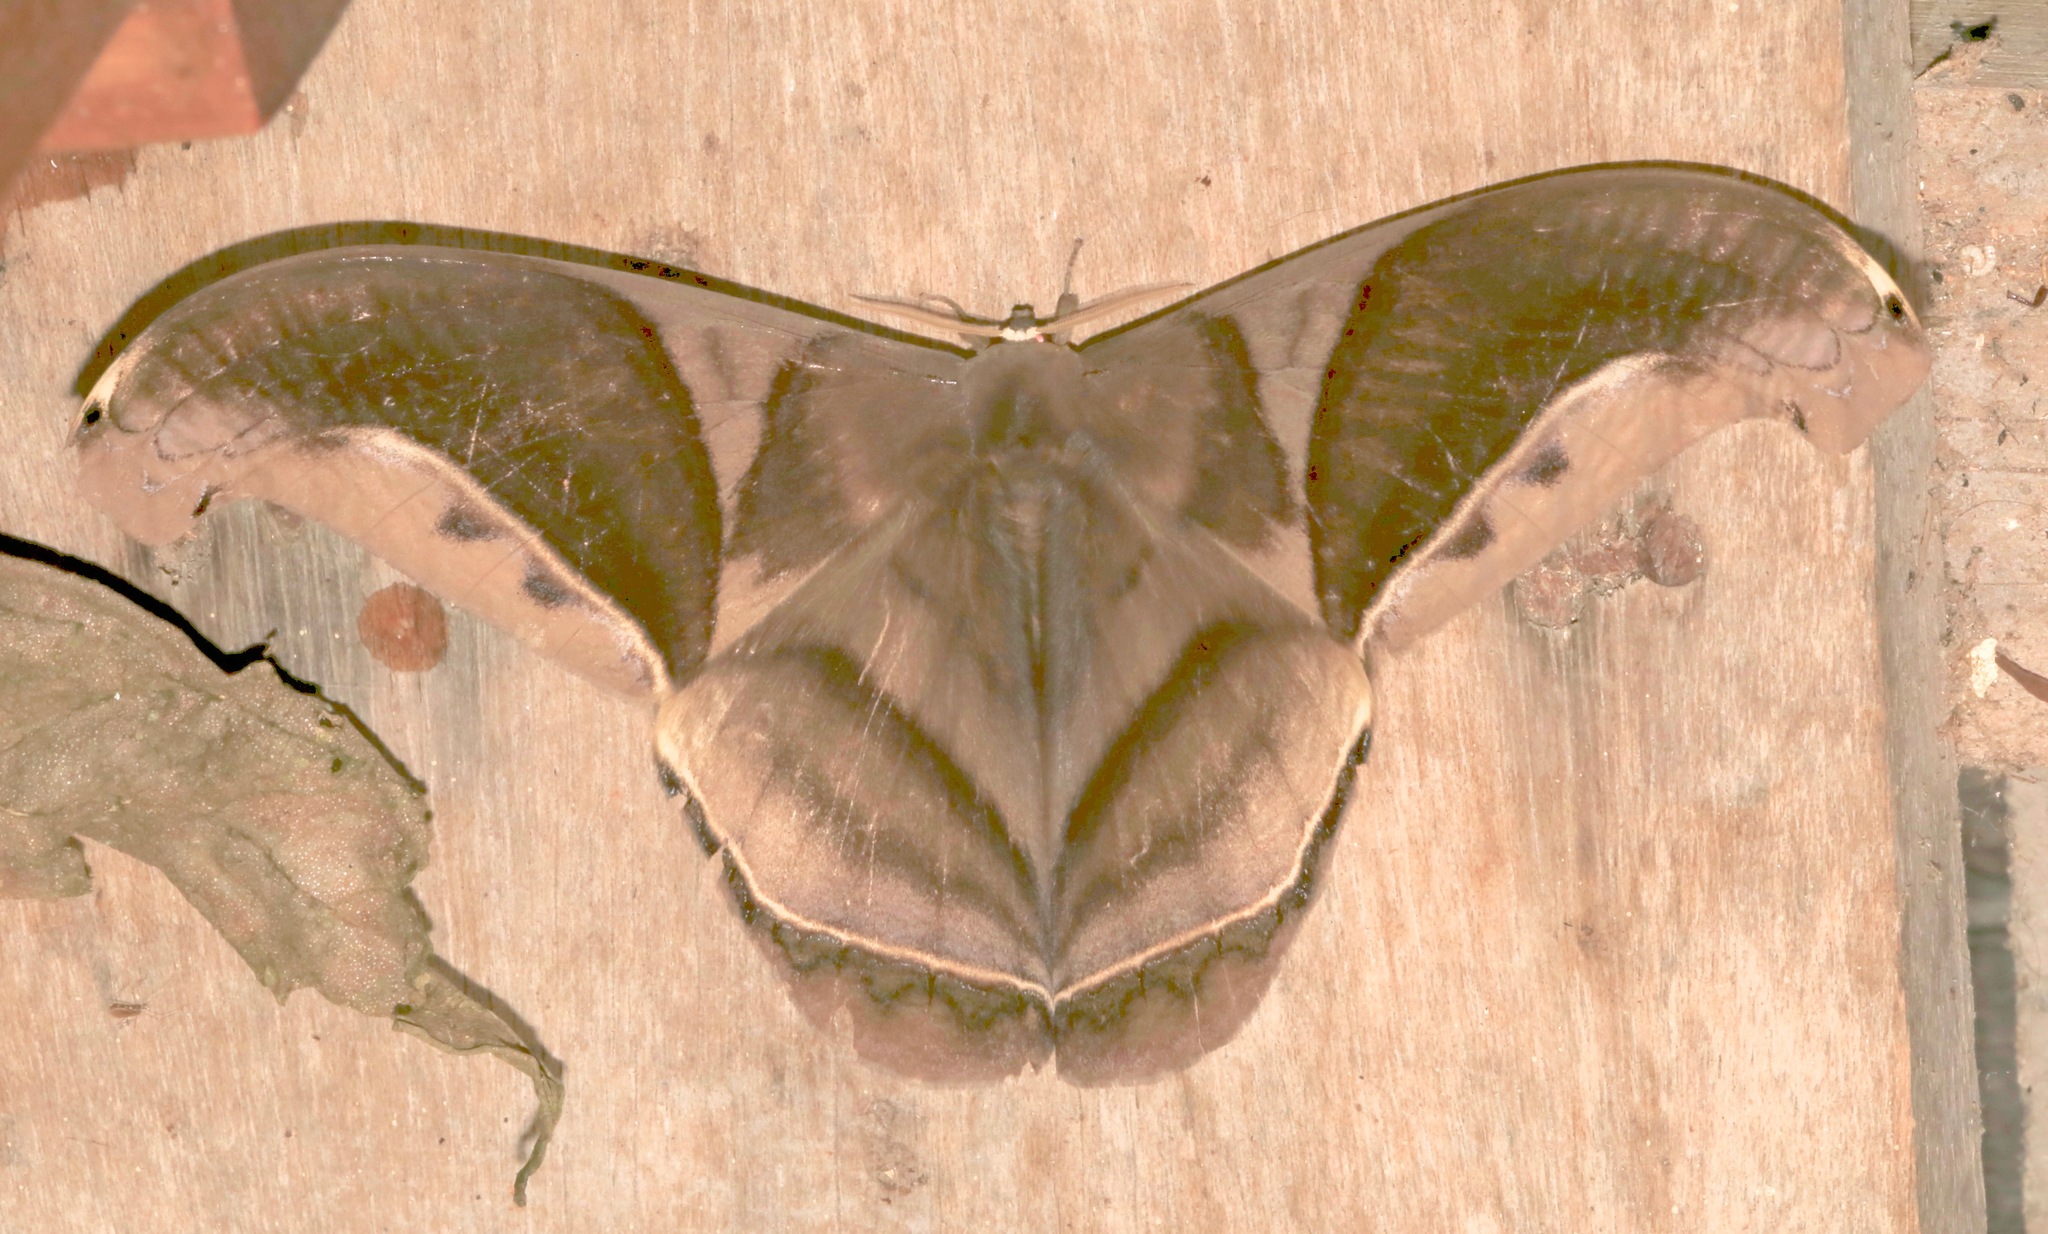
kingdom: Animalia
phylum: Arthropoda
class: Insecta
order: Lepidoptera
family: Saturniidae
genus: Rhescyntis
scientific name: Rhescyntis hippodamia
